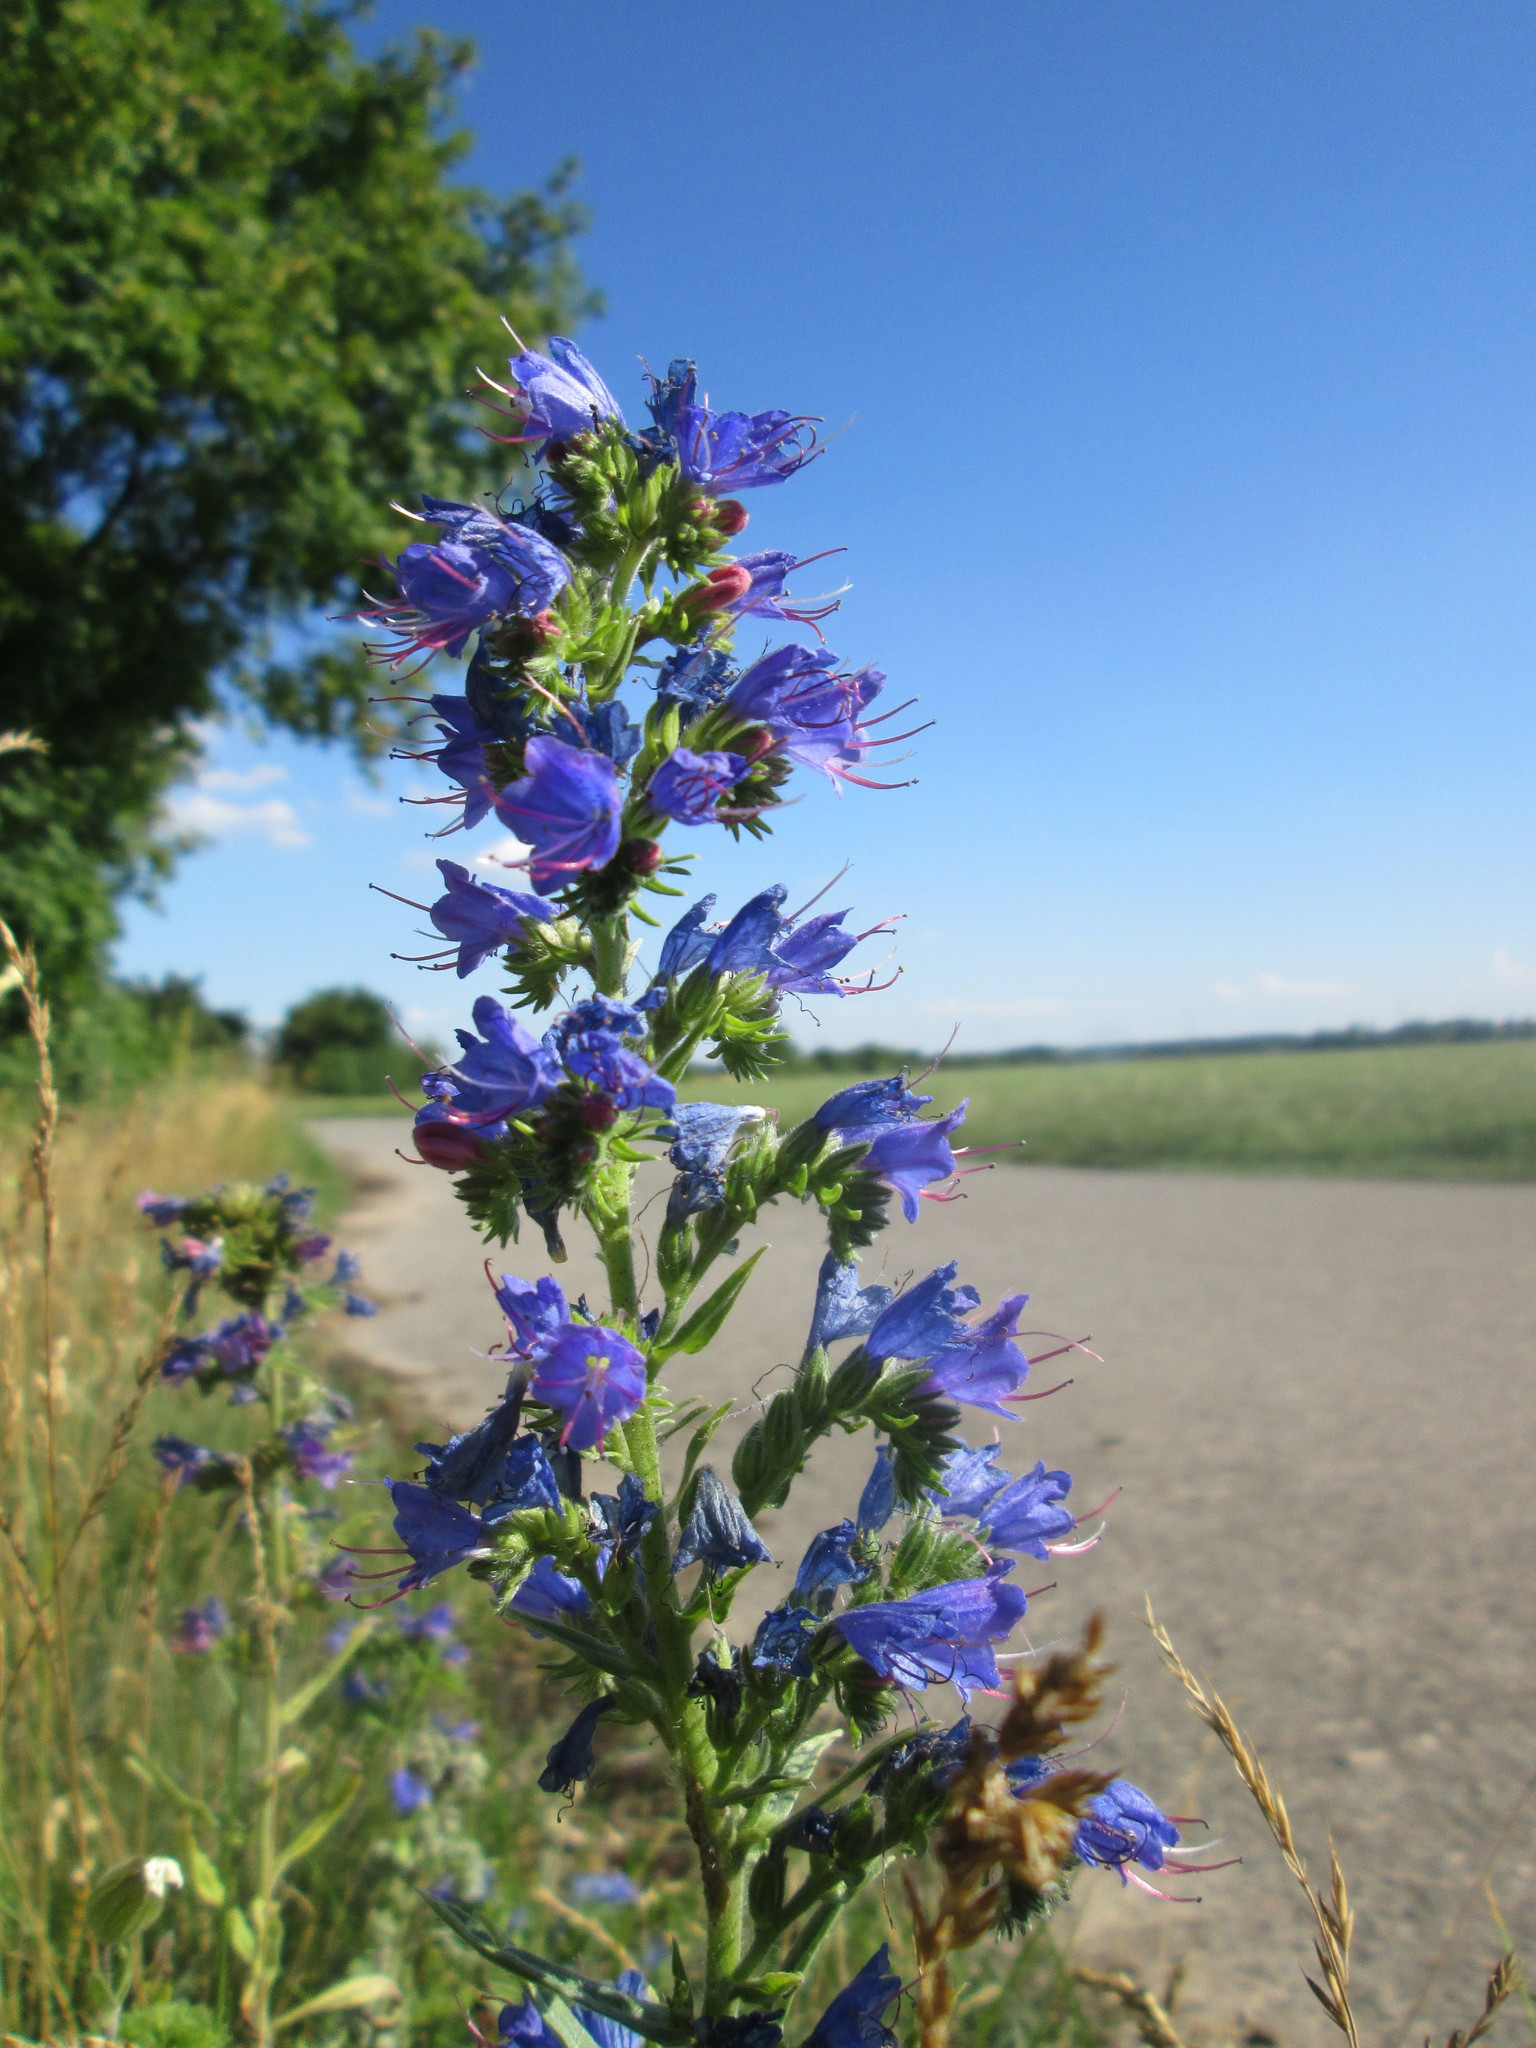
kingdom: Plantae
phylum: Tracheophyta
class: Magnoliopsida
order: Boraginales
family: Boraginaceae
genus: Echium
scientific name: Echium vulgare
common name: Common viper's bugloss
